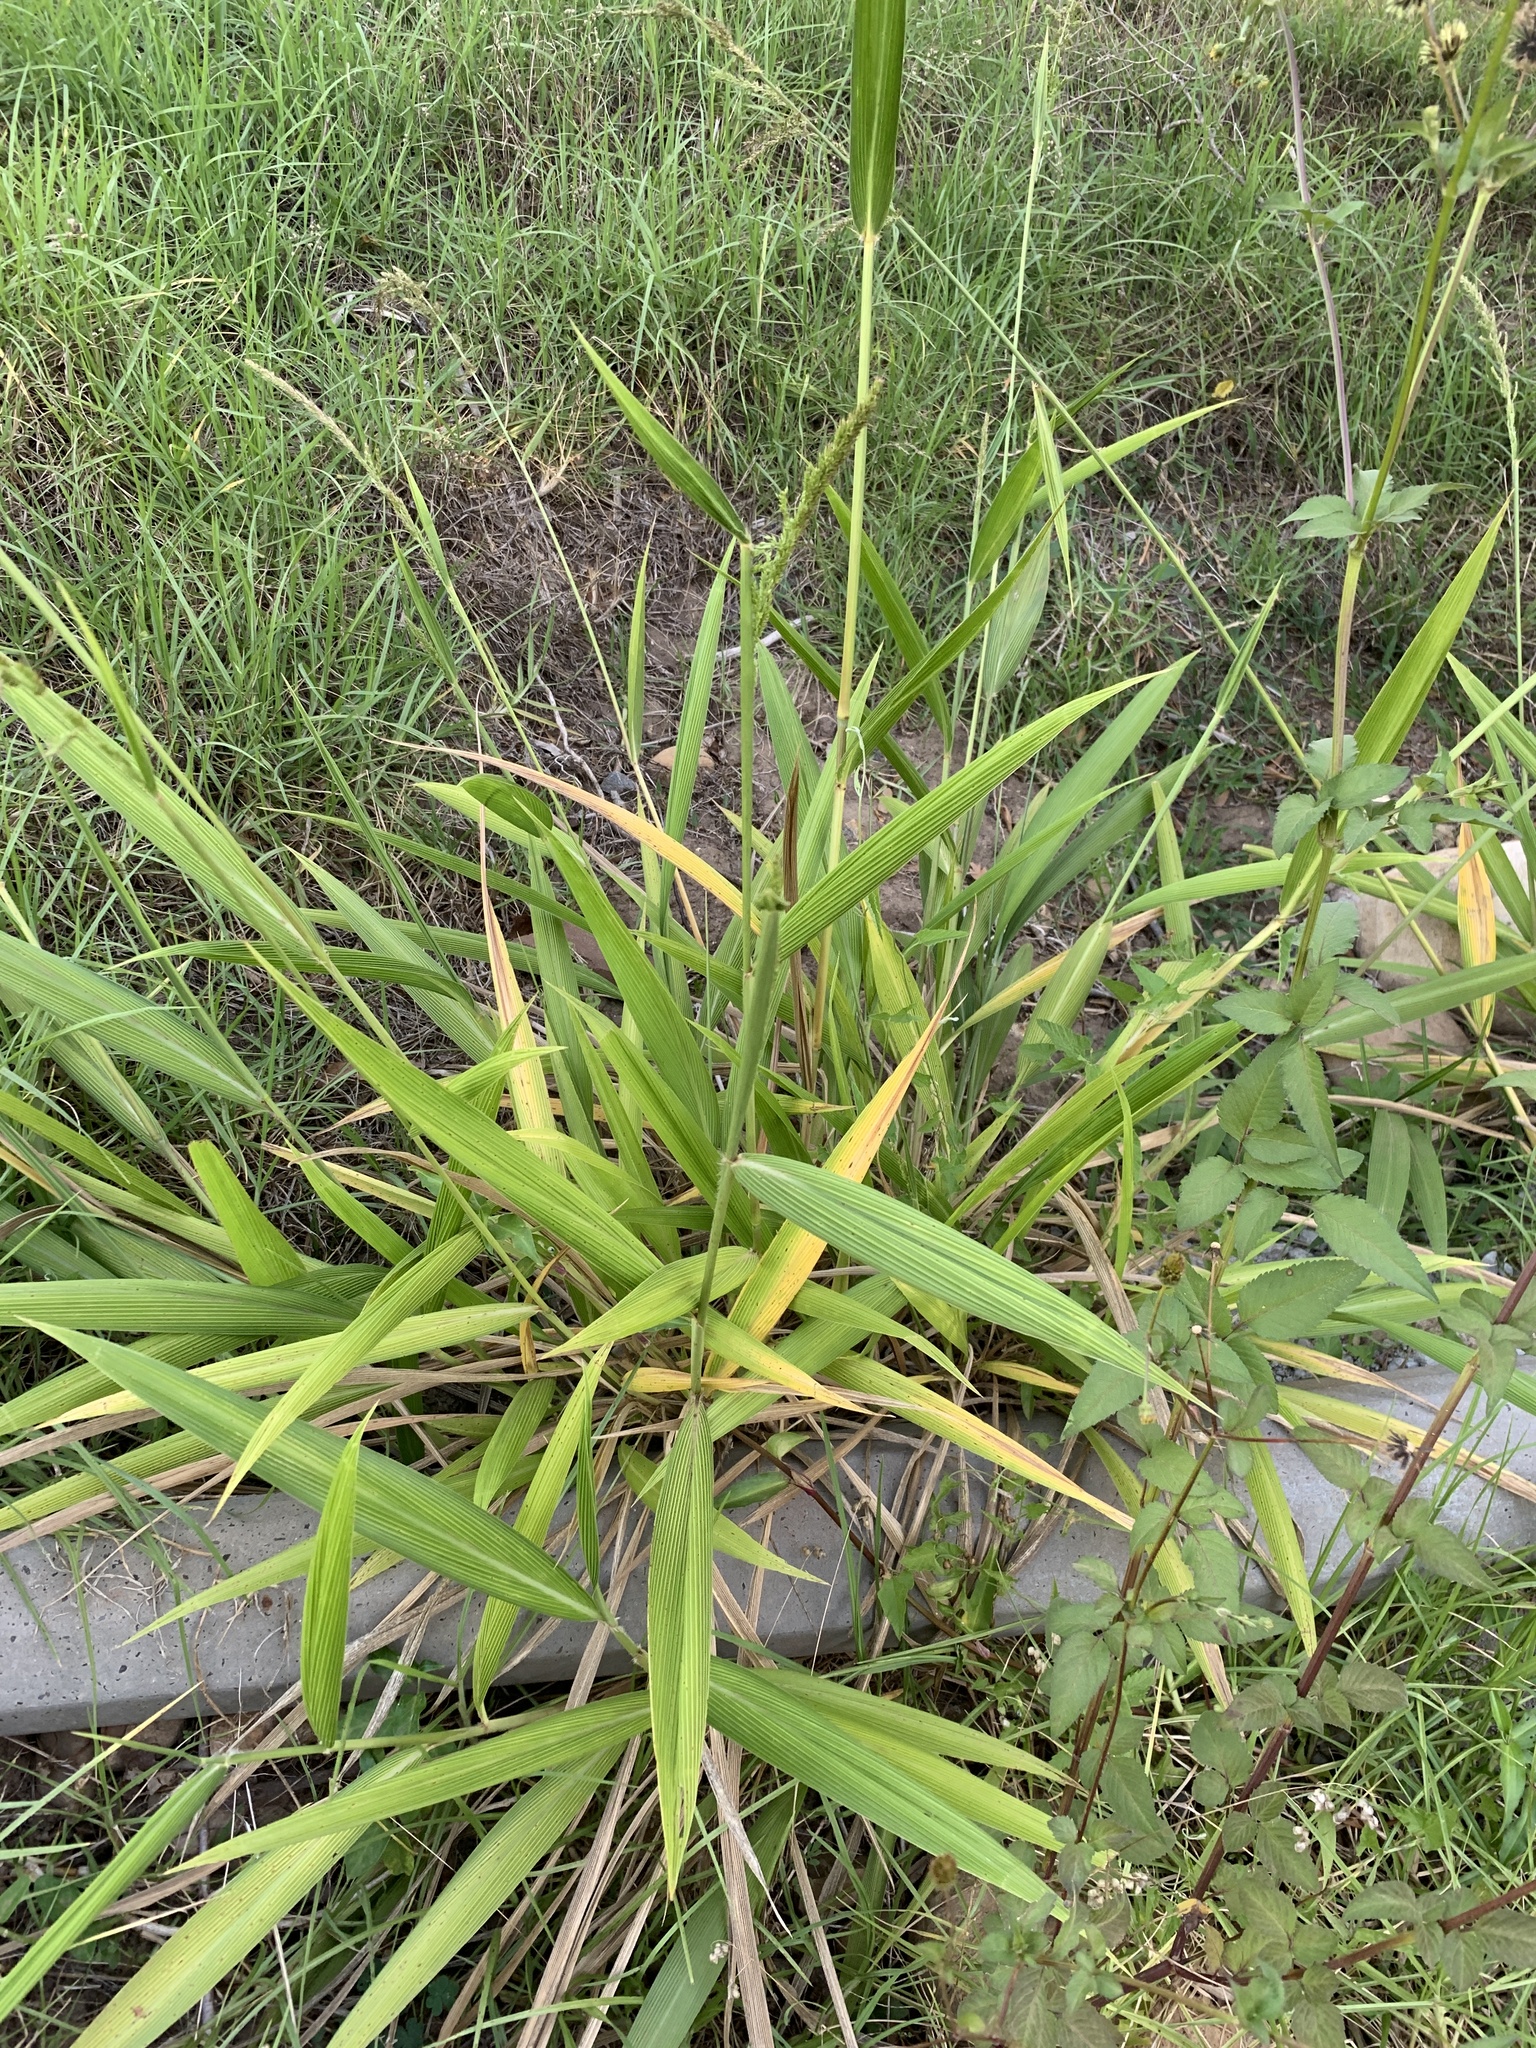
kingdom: Plantae
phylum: Tracheophyta
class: Liliopsida
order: Poales
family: Poaceae
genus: Setaria
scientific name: Setaria megaphylla
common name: Bigleaf bristlegrass
